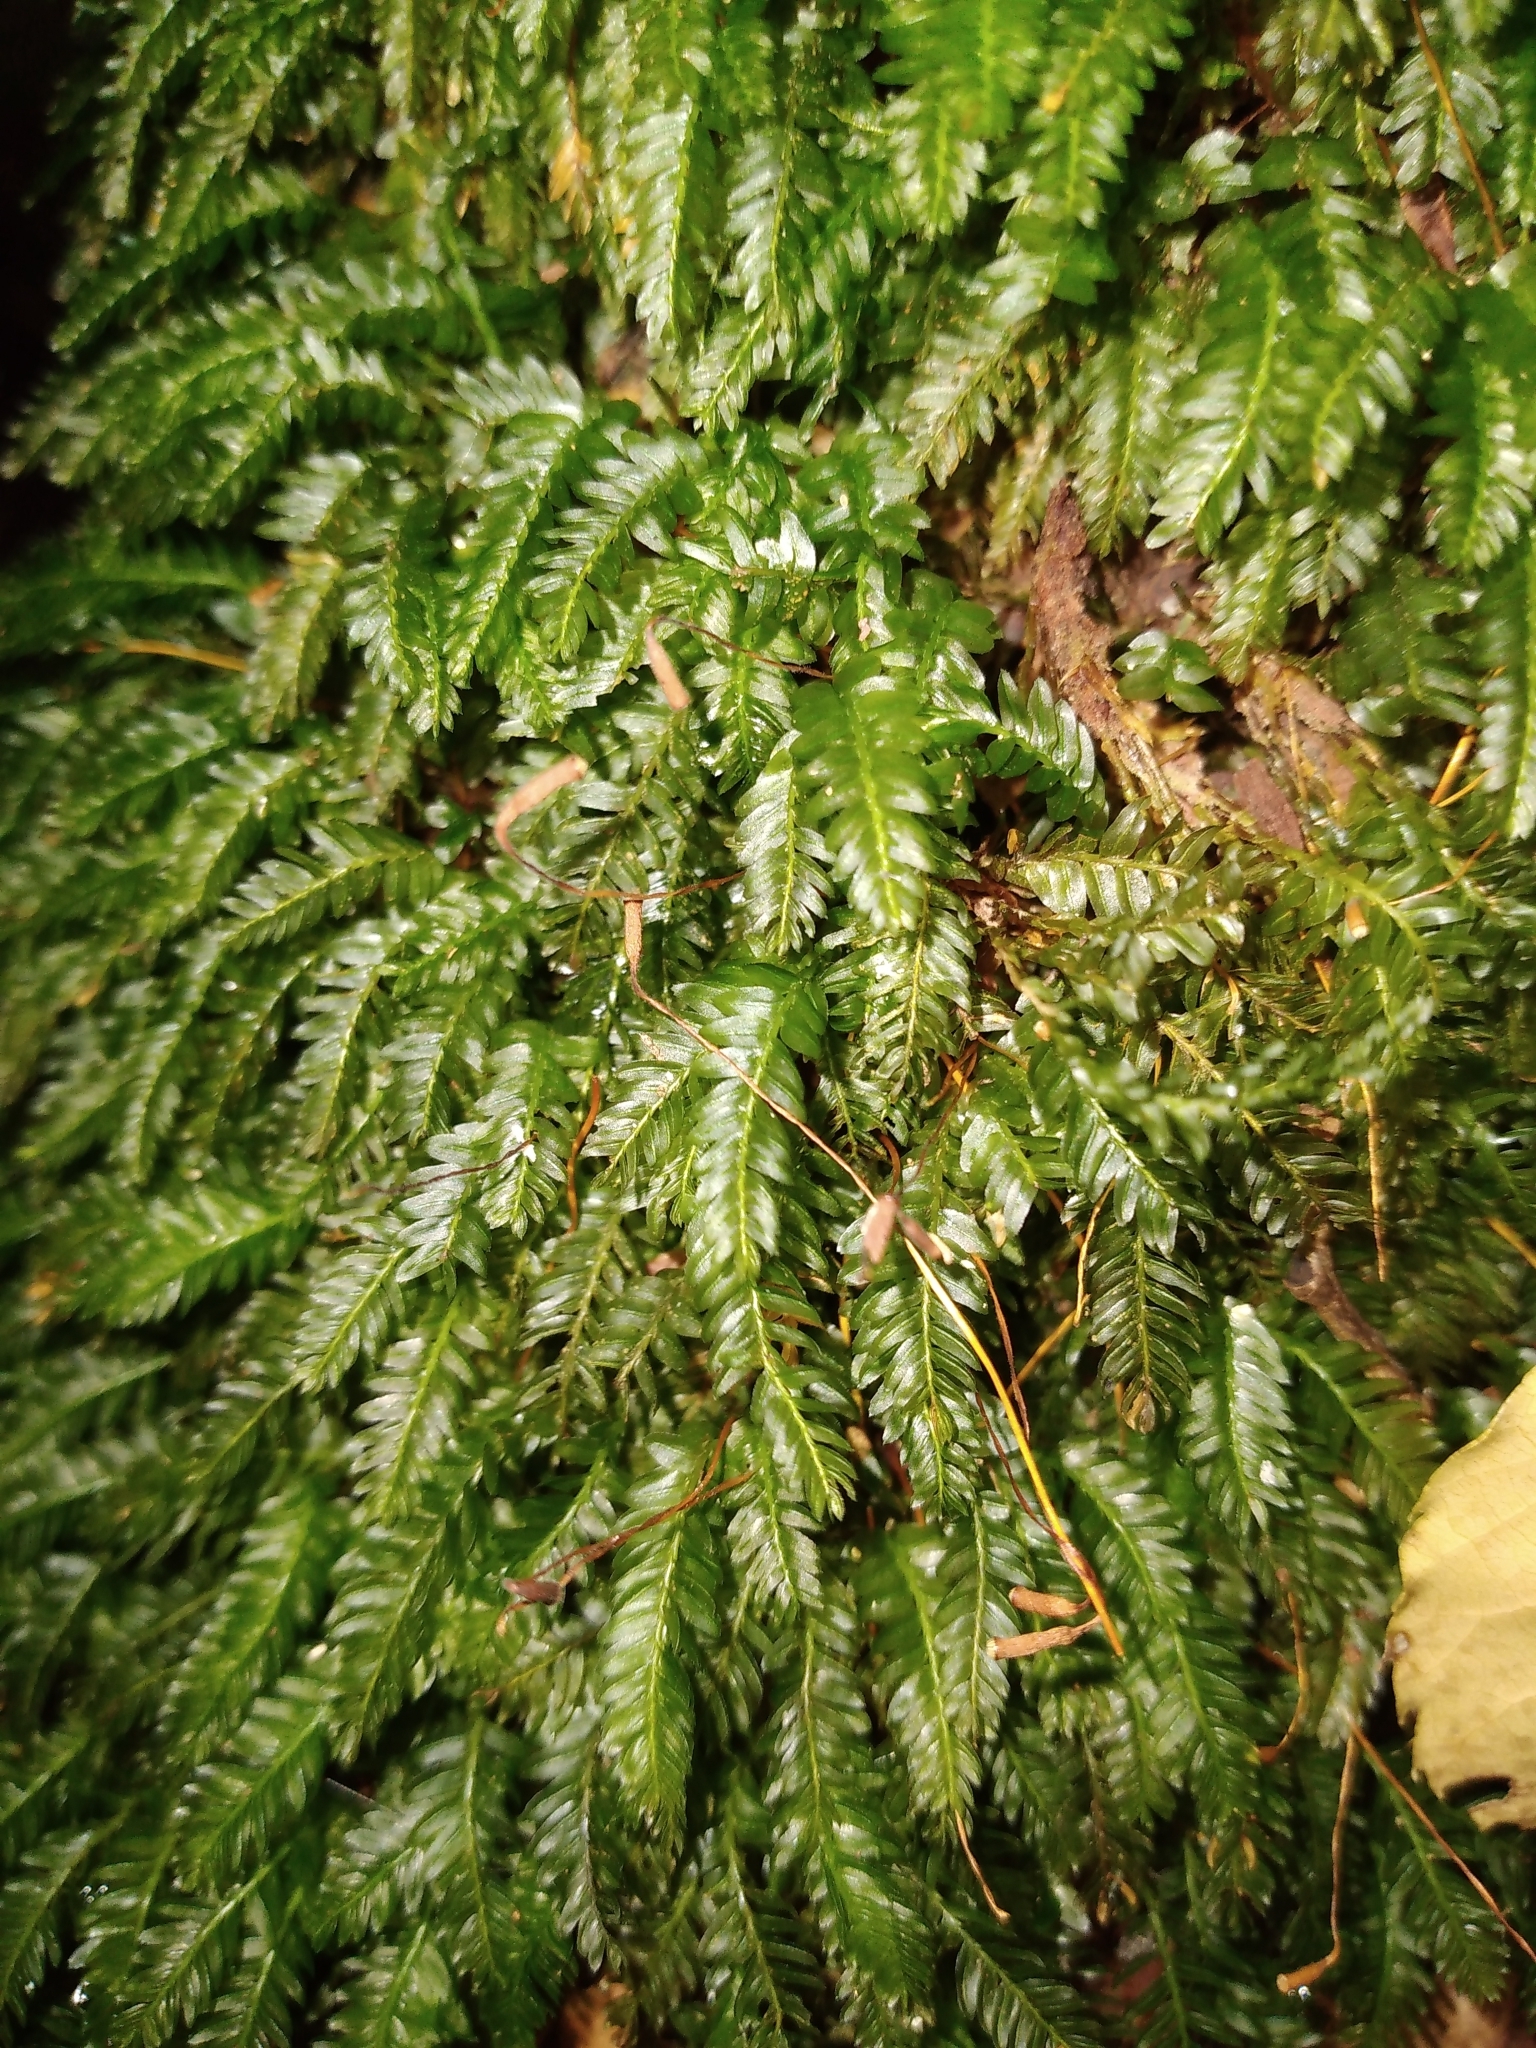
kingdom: Plantae
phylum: Bryophyta
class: Bryopsida
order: Rhizogoniales
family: Rhizogoniaceae
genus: Rhizogonium
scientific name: Rhizogonium distichum
